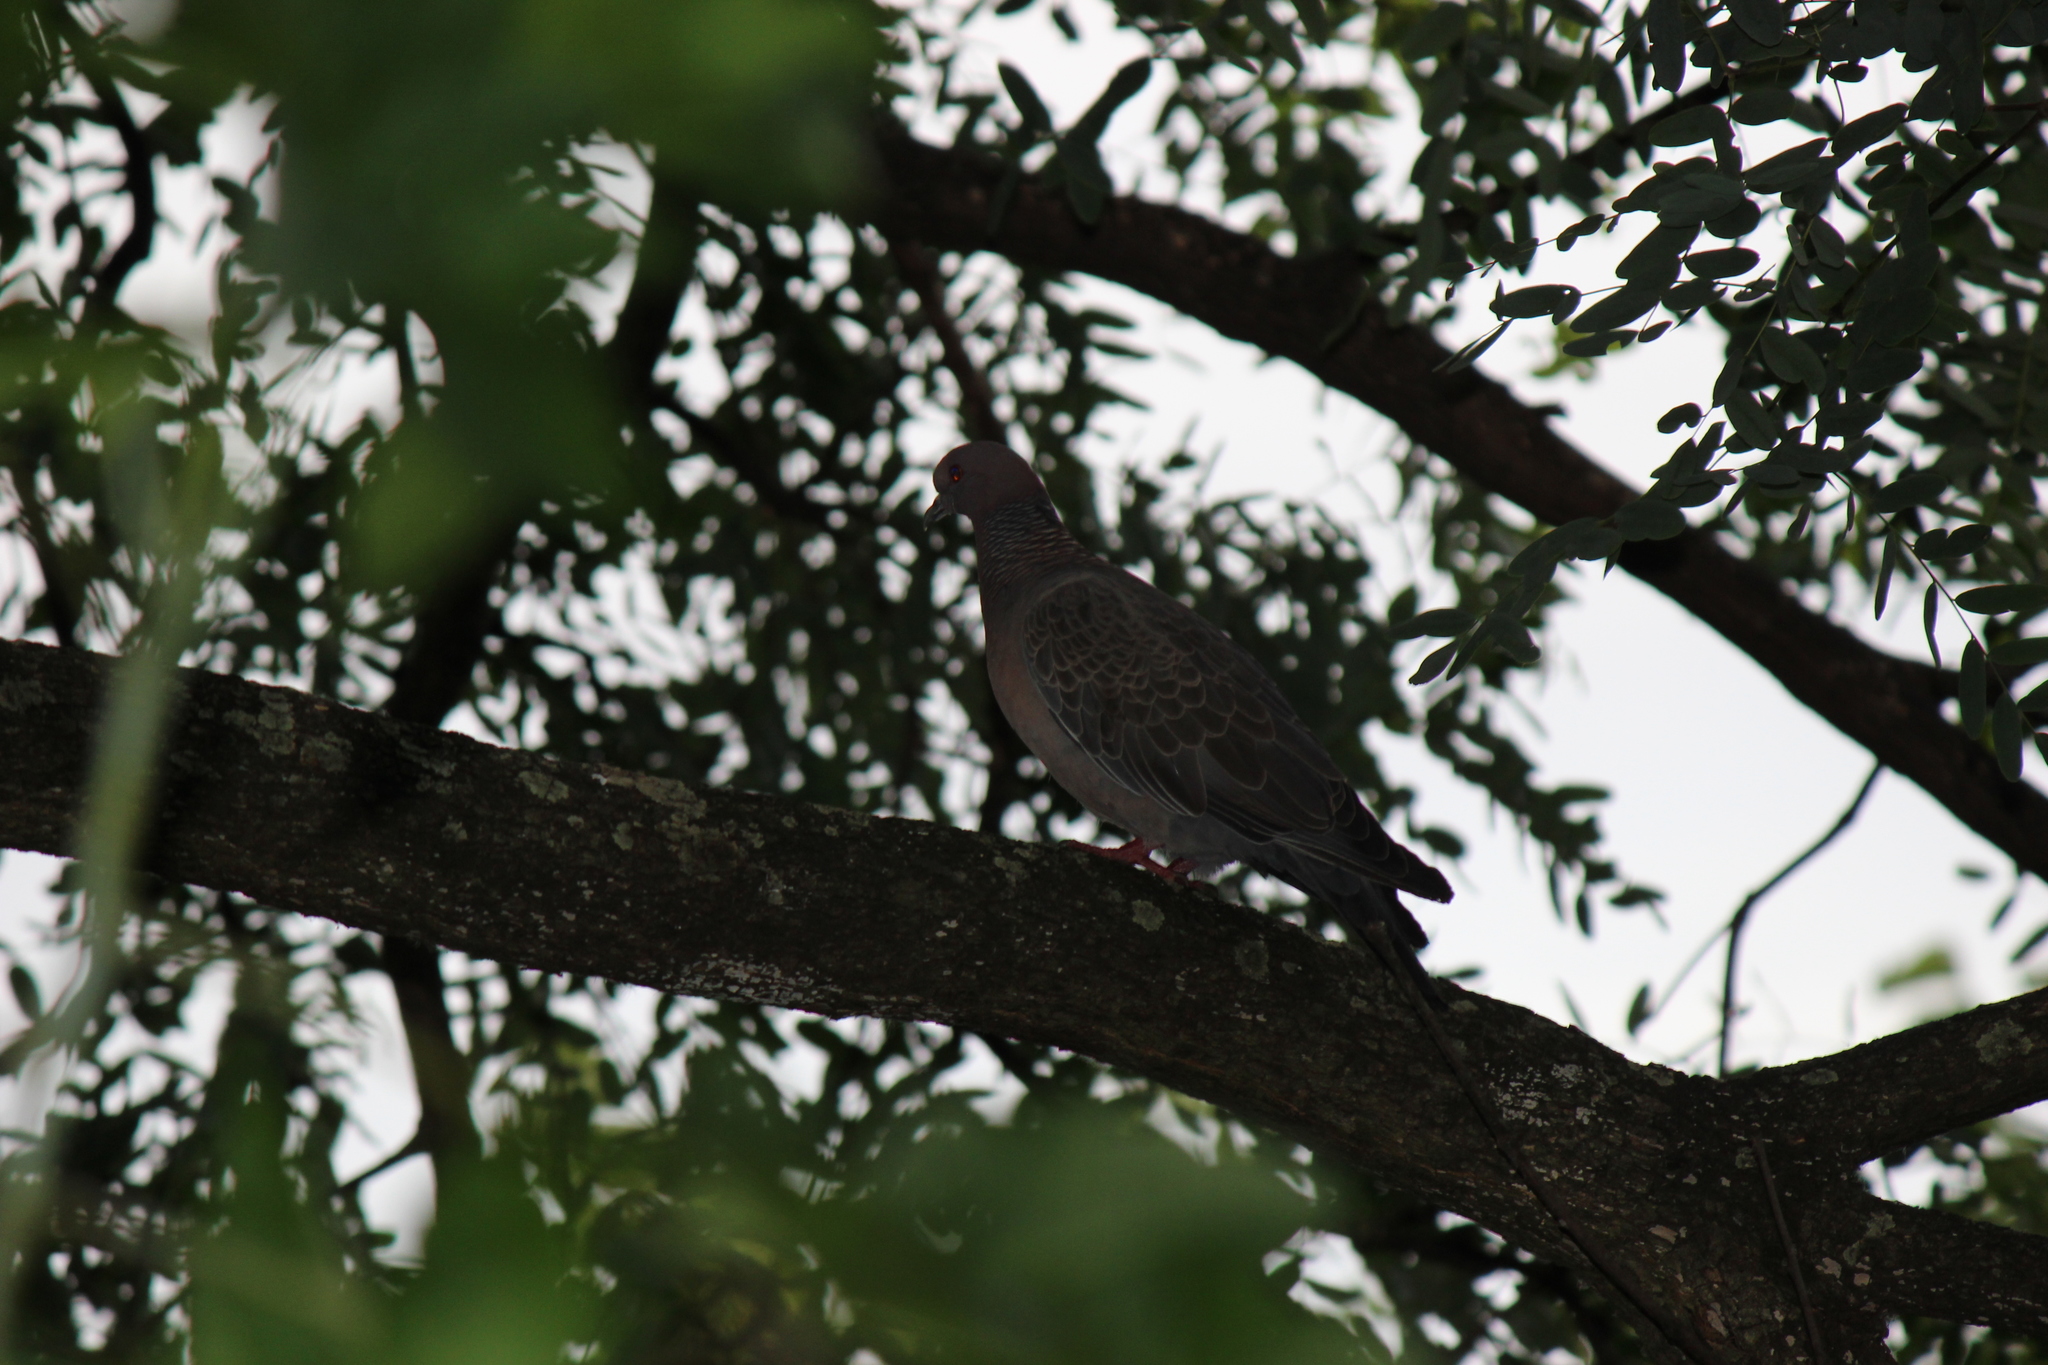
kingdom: Animalia
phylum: Chordata
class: Aves
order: Columbiformes
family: Columbidae
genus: Patagioenas
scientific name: Patagioenas picazuro
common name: Picazuro pigeon
